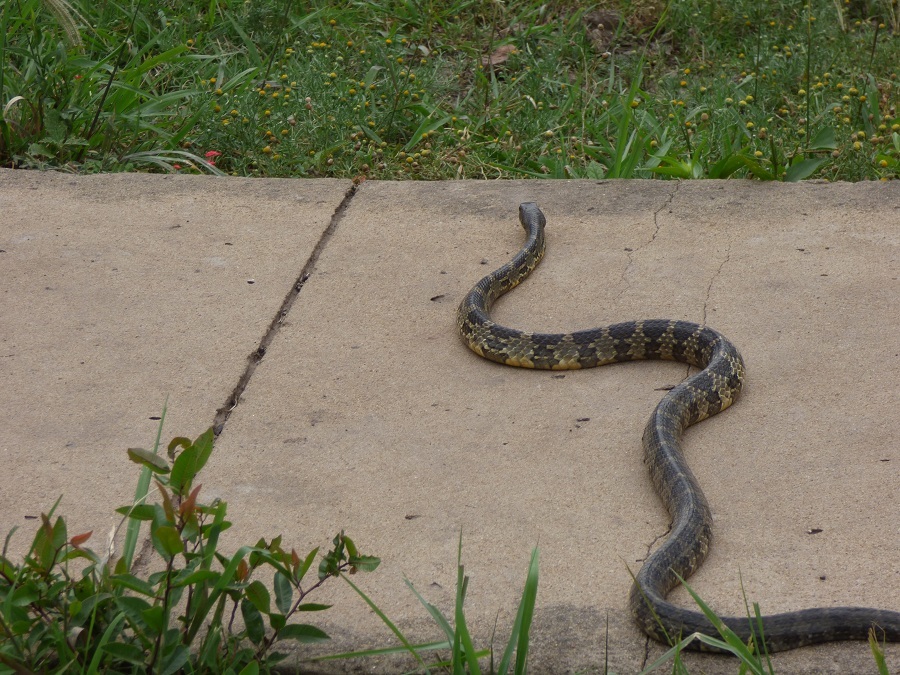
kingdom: Animalia
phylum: Chordata
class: Squamata
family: Colubridae
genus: Palusophis
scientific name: Palusophis bifossatus
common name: Rio tropical racer
